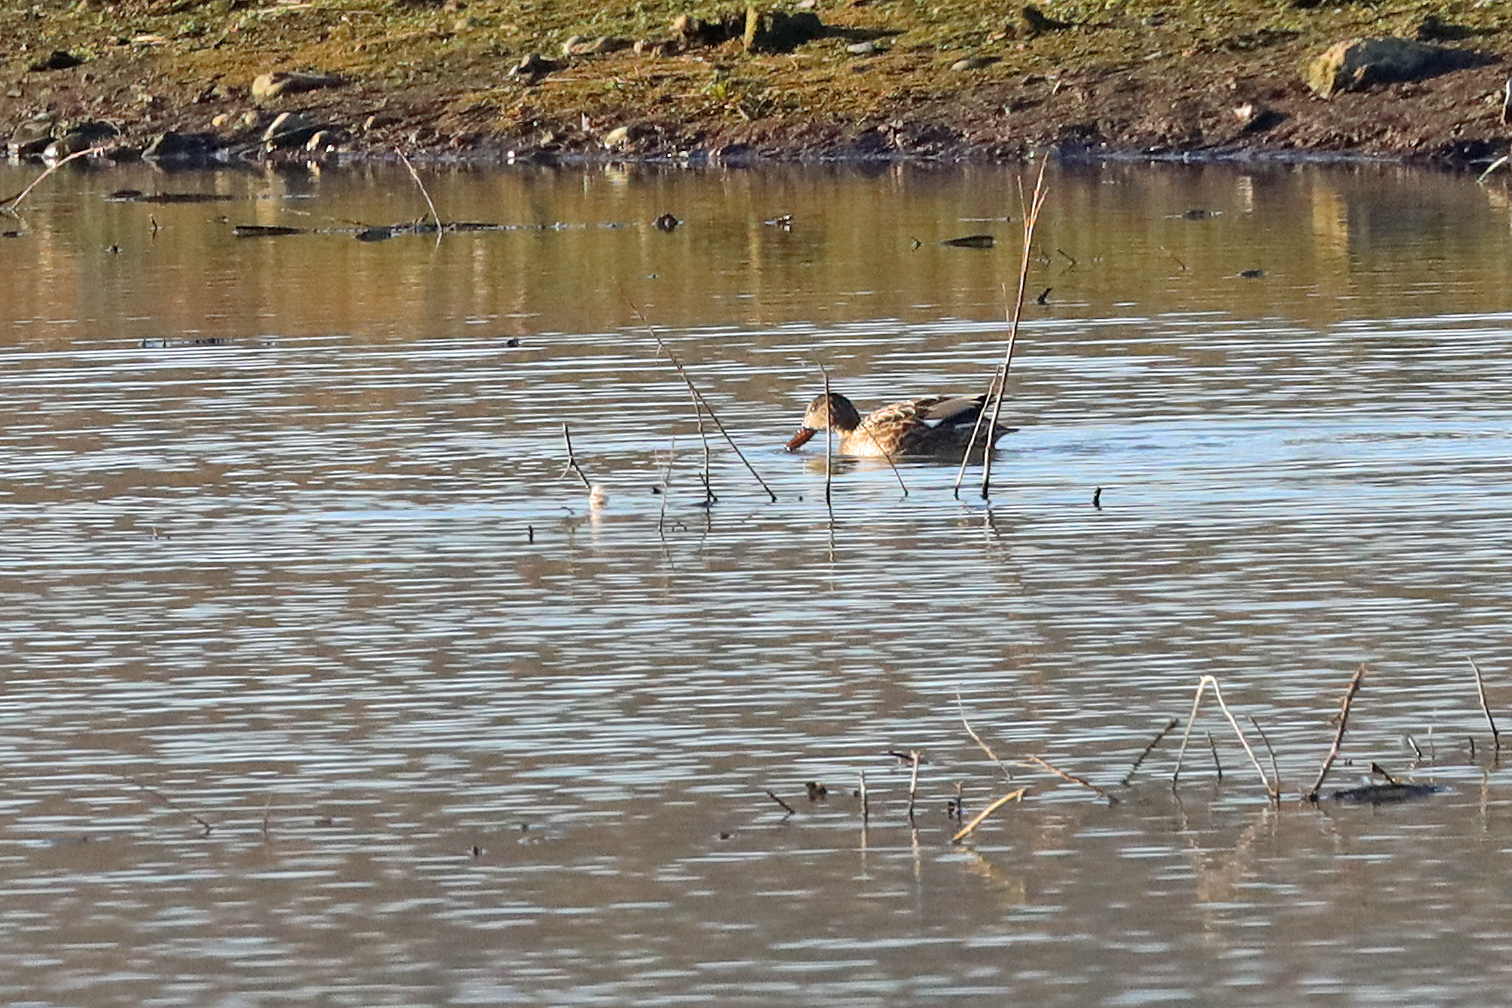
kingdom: Animalia
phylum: Chordata
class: Aves
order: Anseriformes
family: Anatidae
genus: Mareca
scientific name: Mareca strepera
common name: Gadwall
